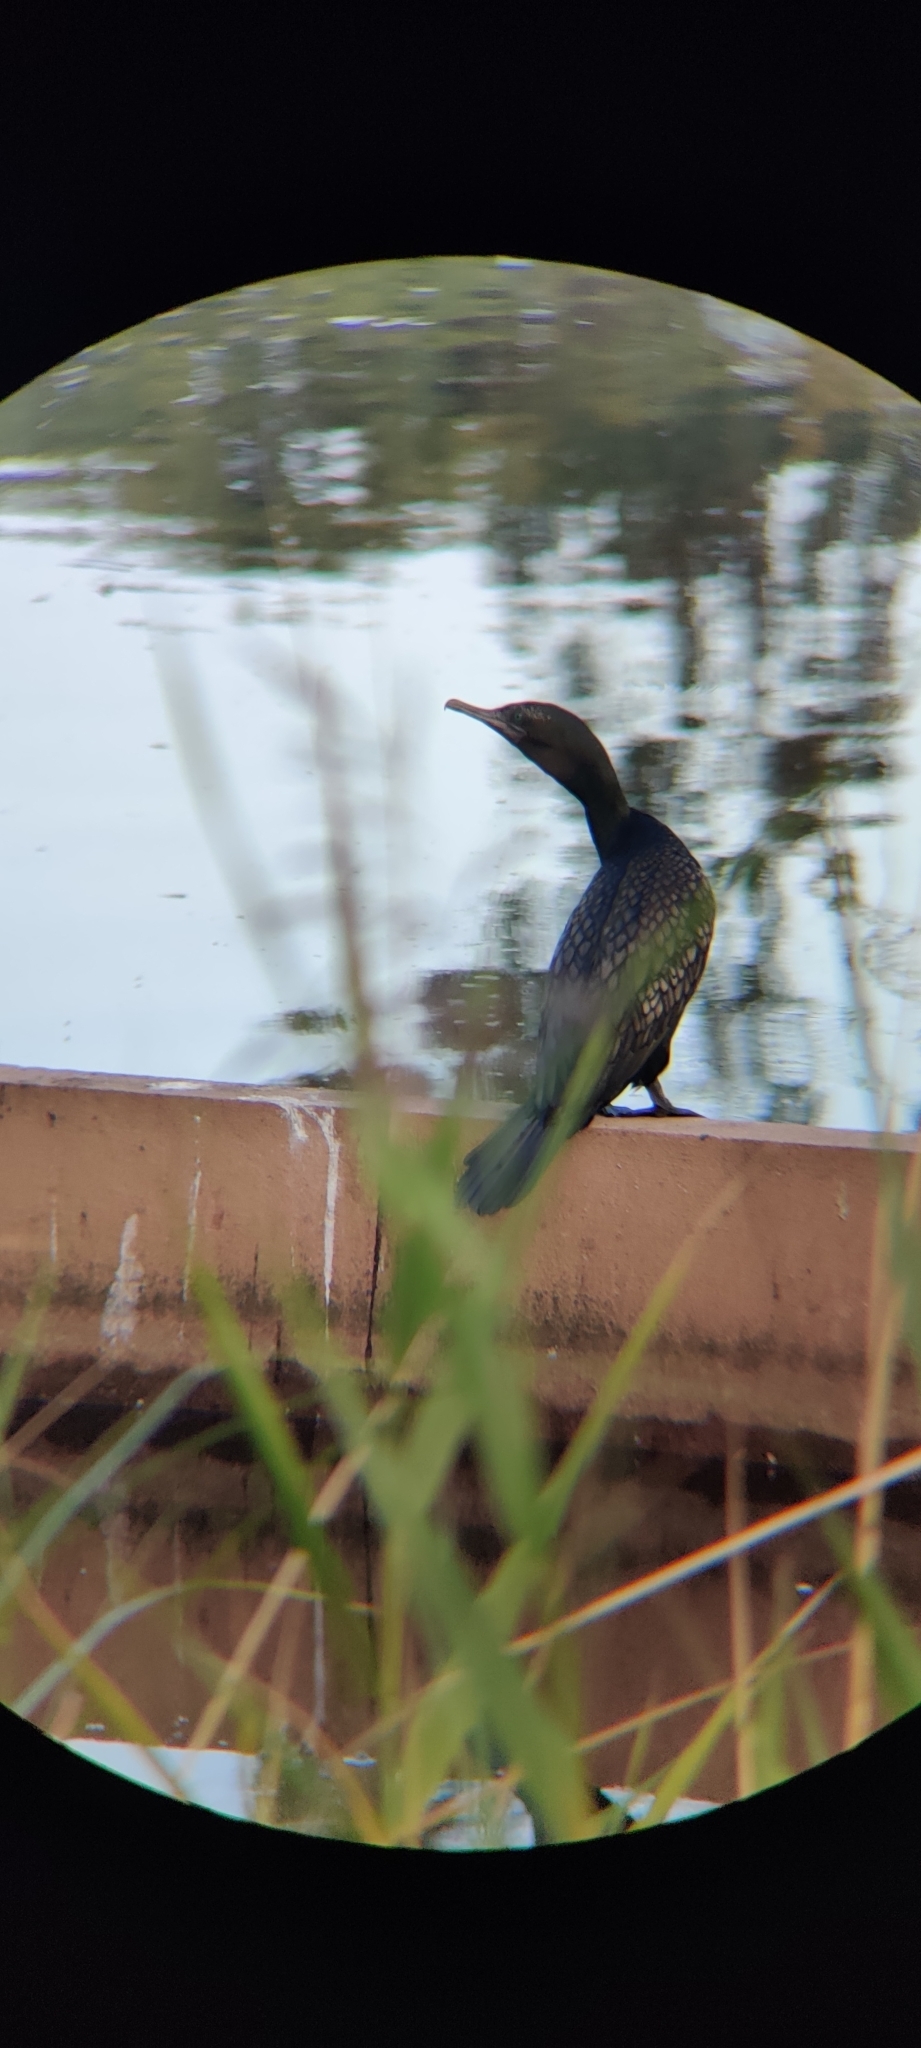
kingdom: Animalia
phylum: Chordata
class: Aves
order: Suliformes
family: Phalacrocoracidae
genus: Phalacrocorax
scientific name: Phalacrocorax sulcirostris
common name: Little black cormorant
